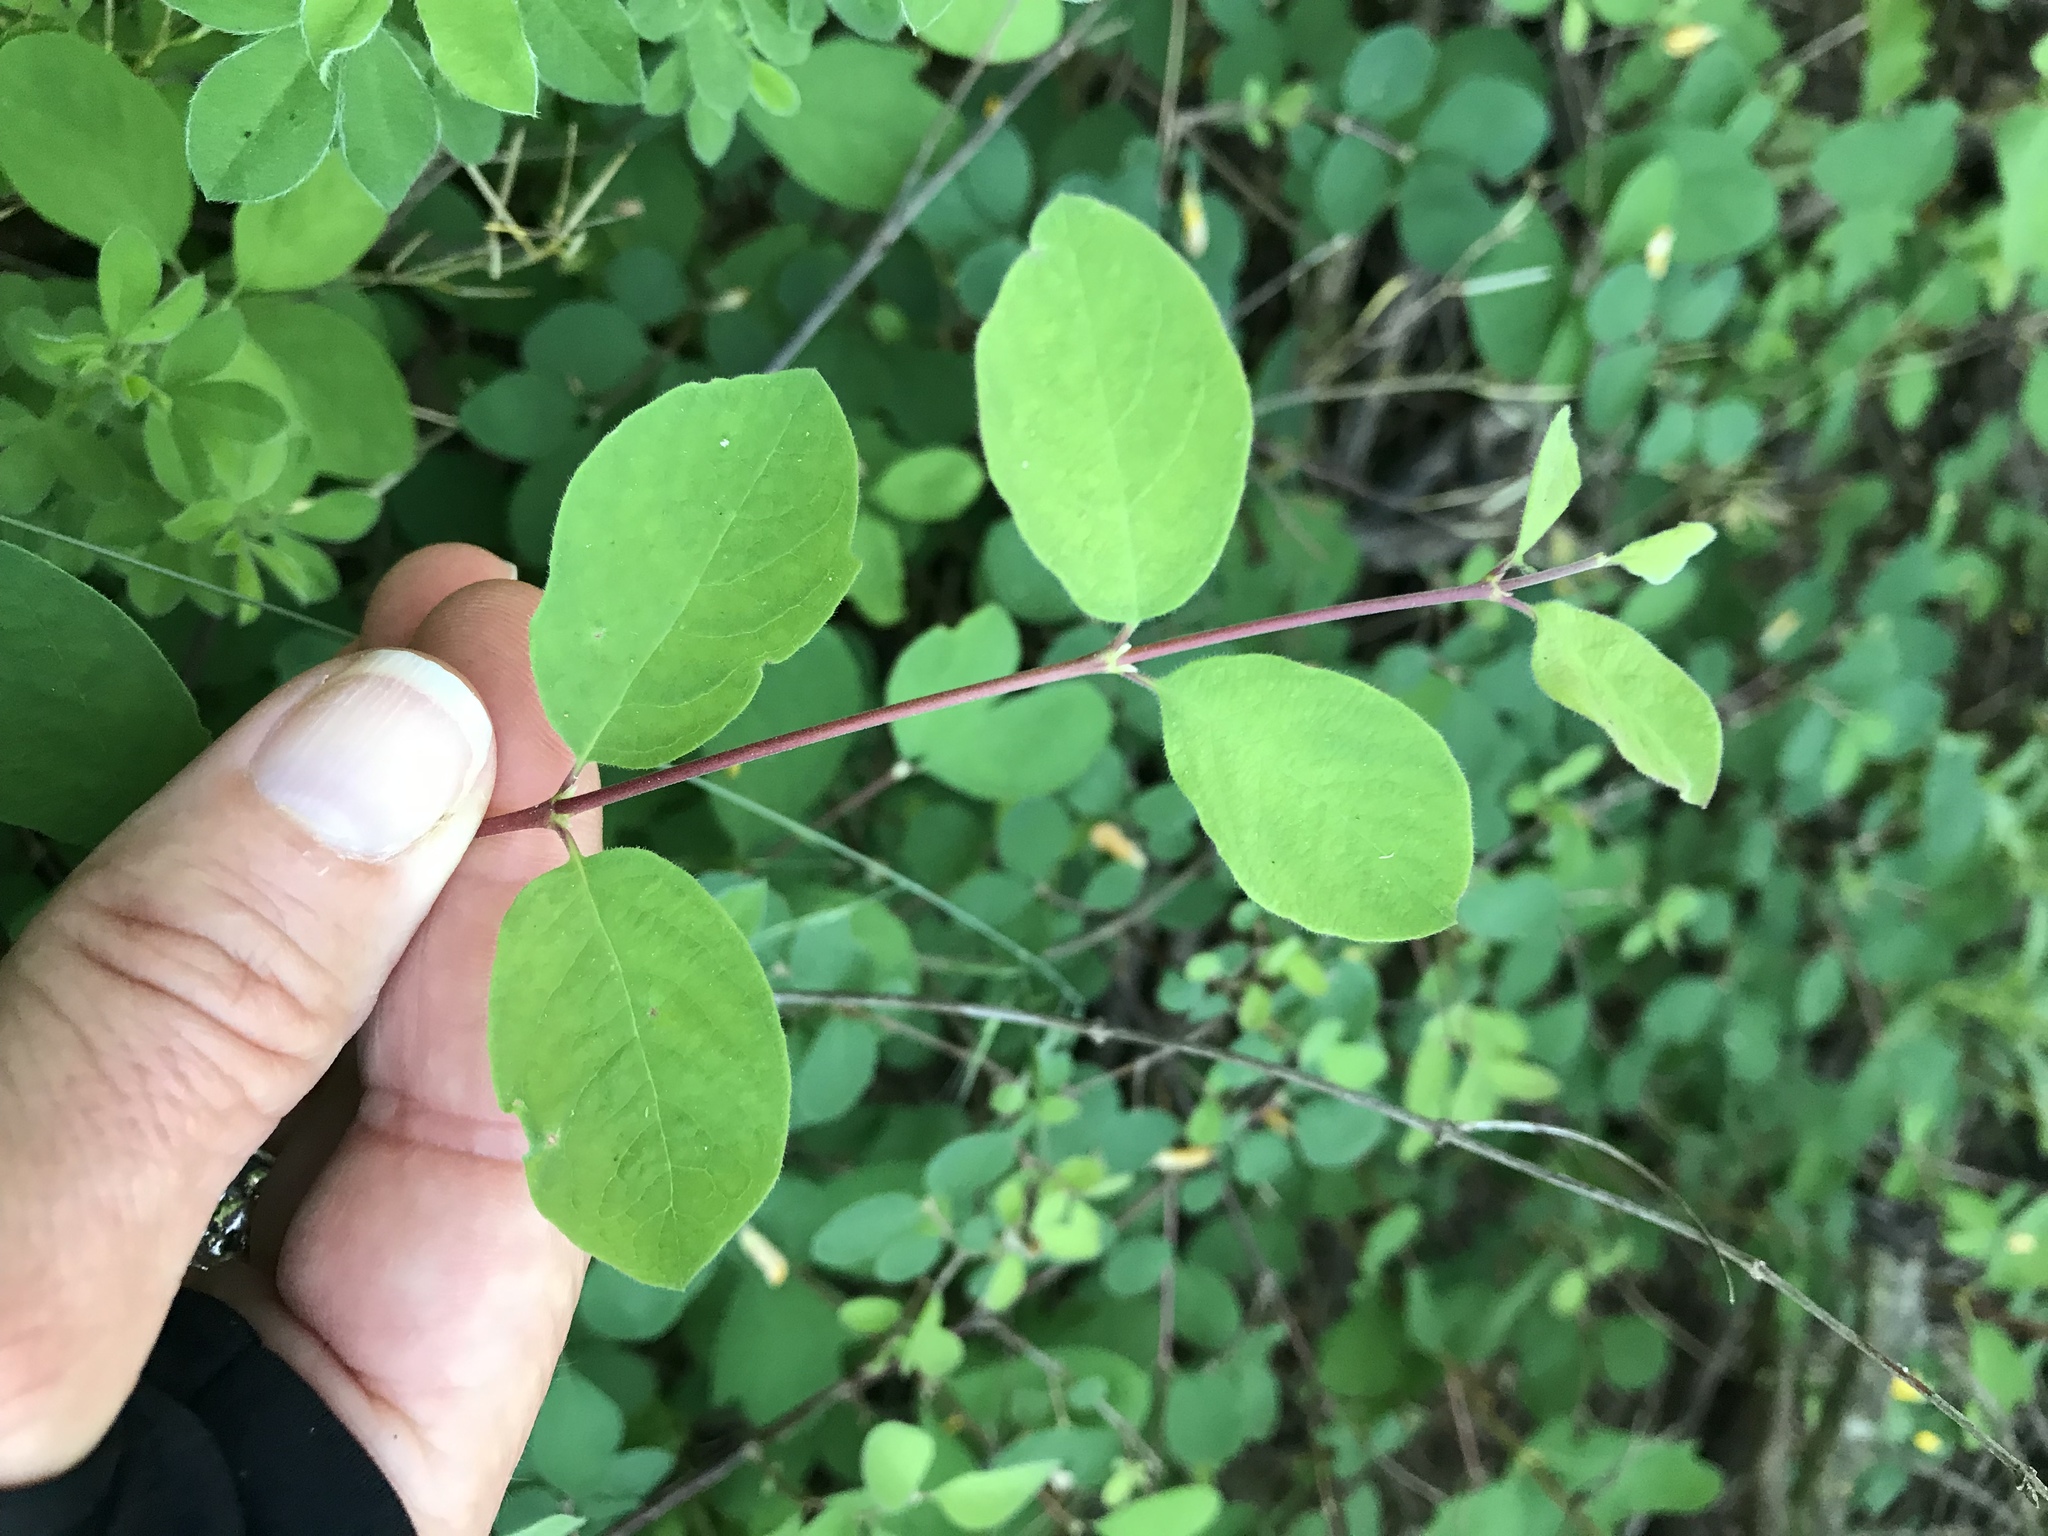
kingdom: Plantae
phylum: Tracheophyta
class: Magnoliopsida
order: Dipsacales
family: Caprifoliaceae
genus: Symphoricarpos
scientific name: Symphoricarpos albus
